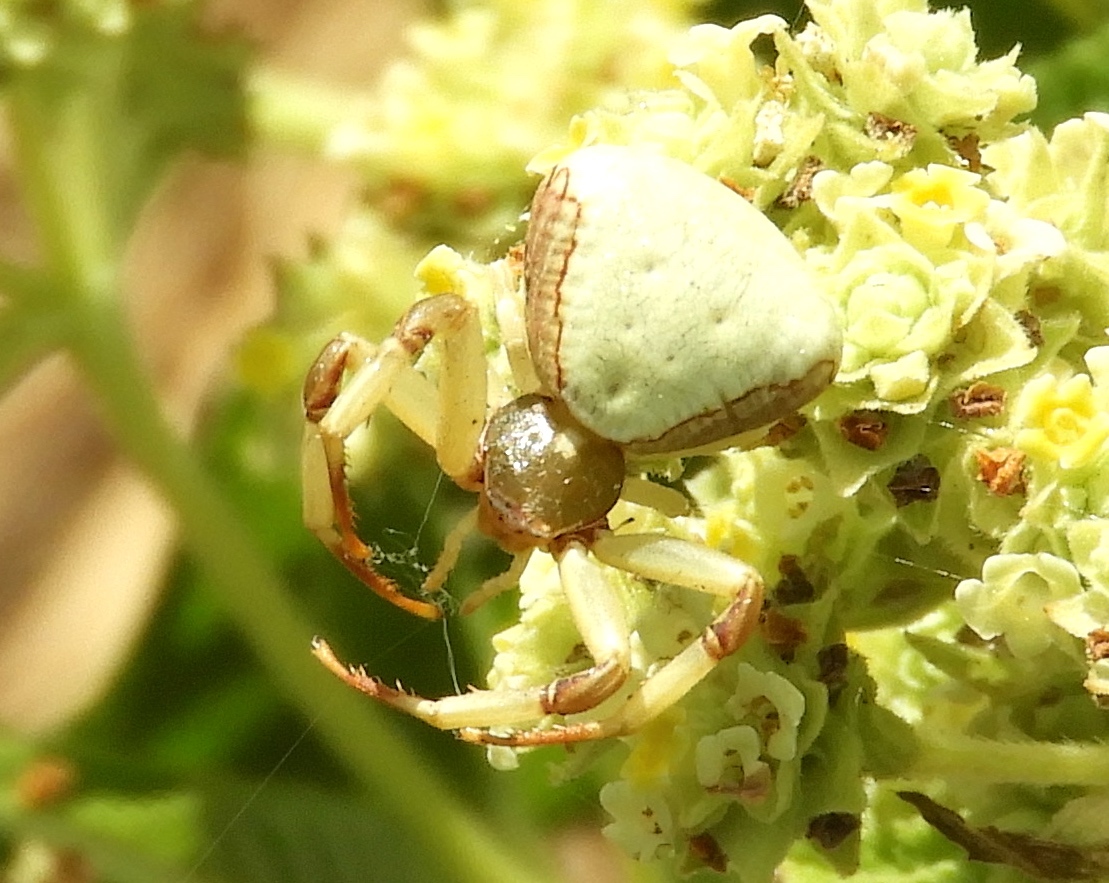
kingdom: Animalia
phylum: Arthropoda
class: Arachnida
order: Araneae
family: Thomisidae
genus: Misumena
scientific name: Misumena vatia
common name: Goldenrod crab spider
